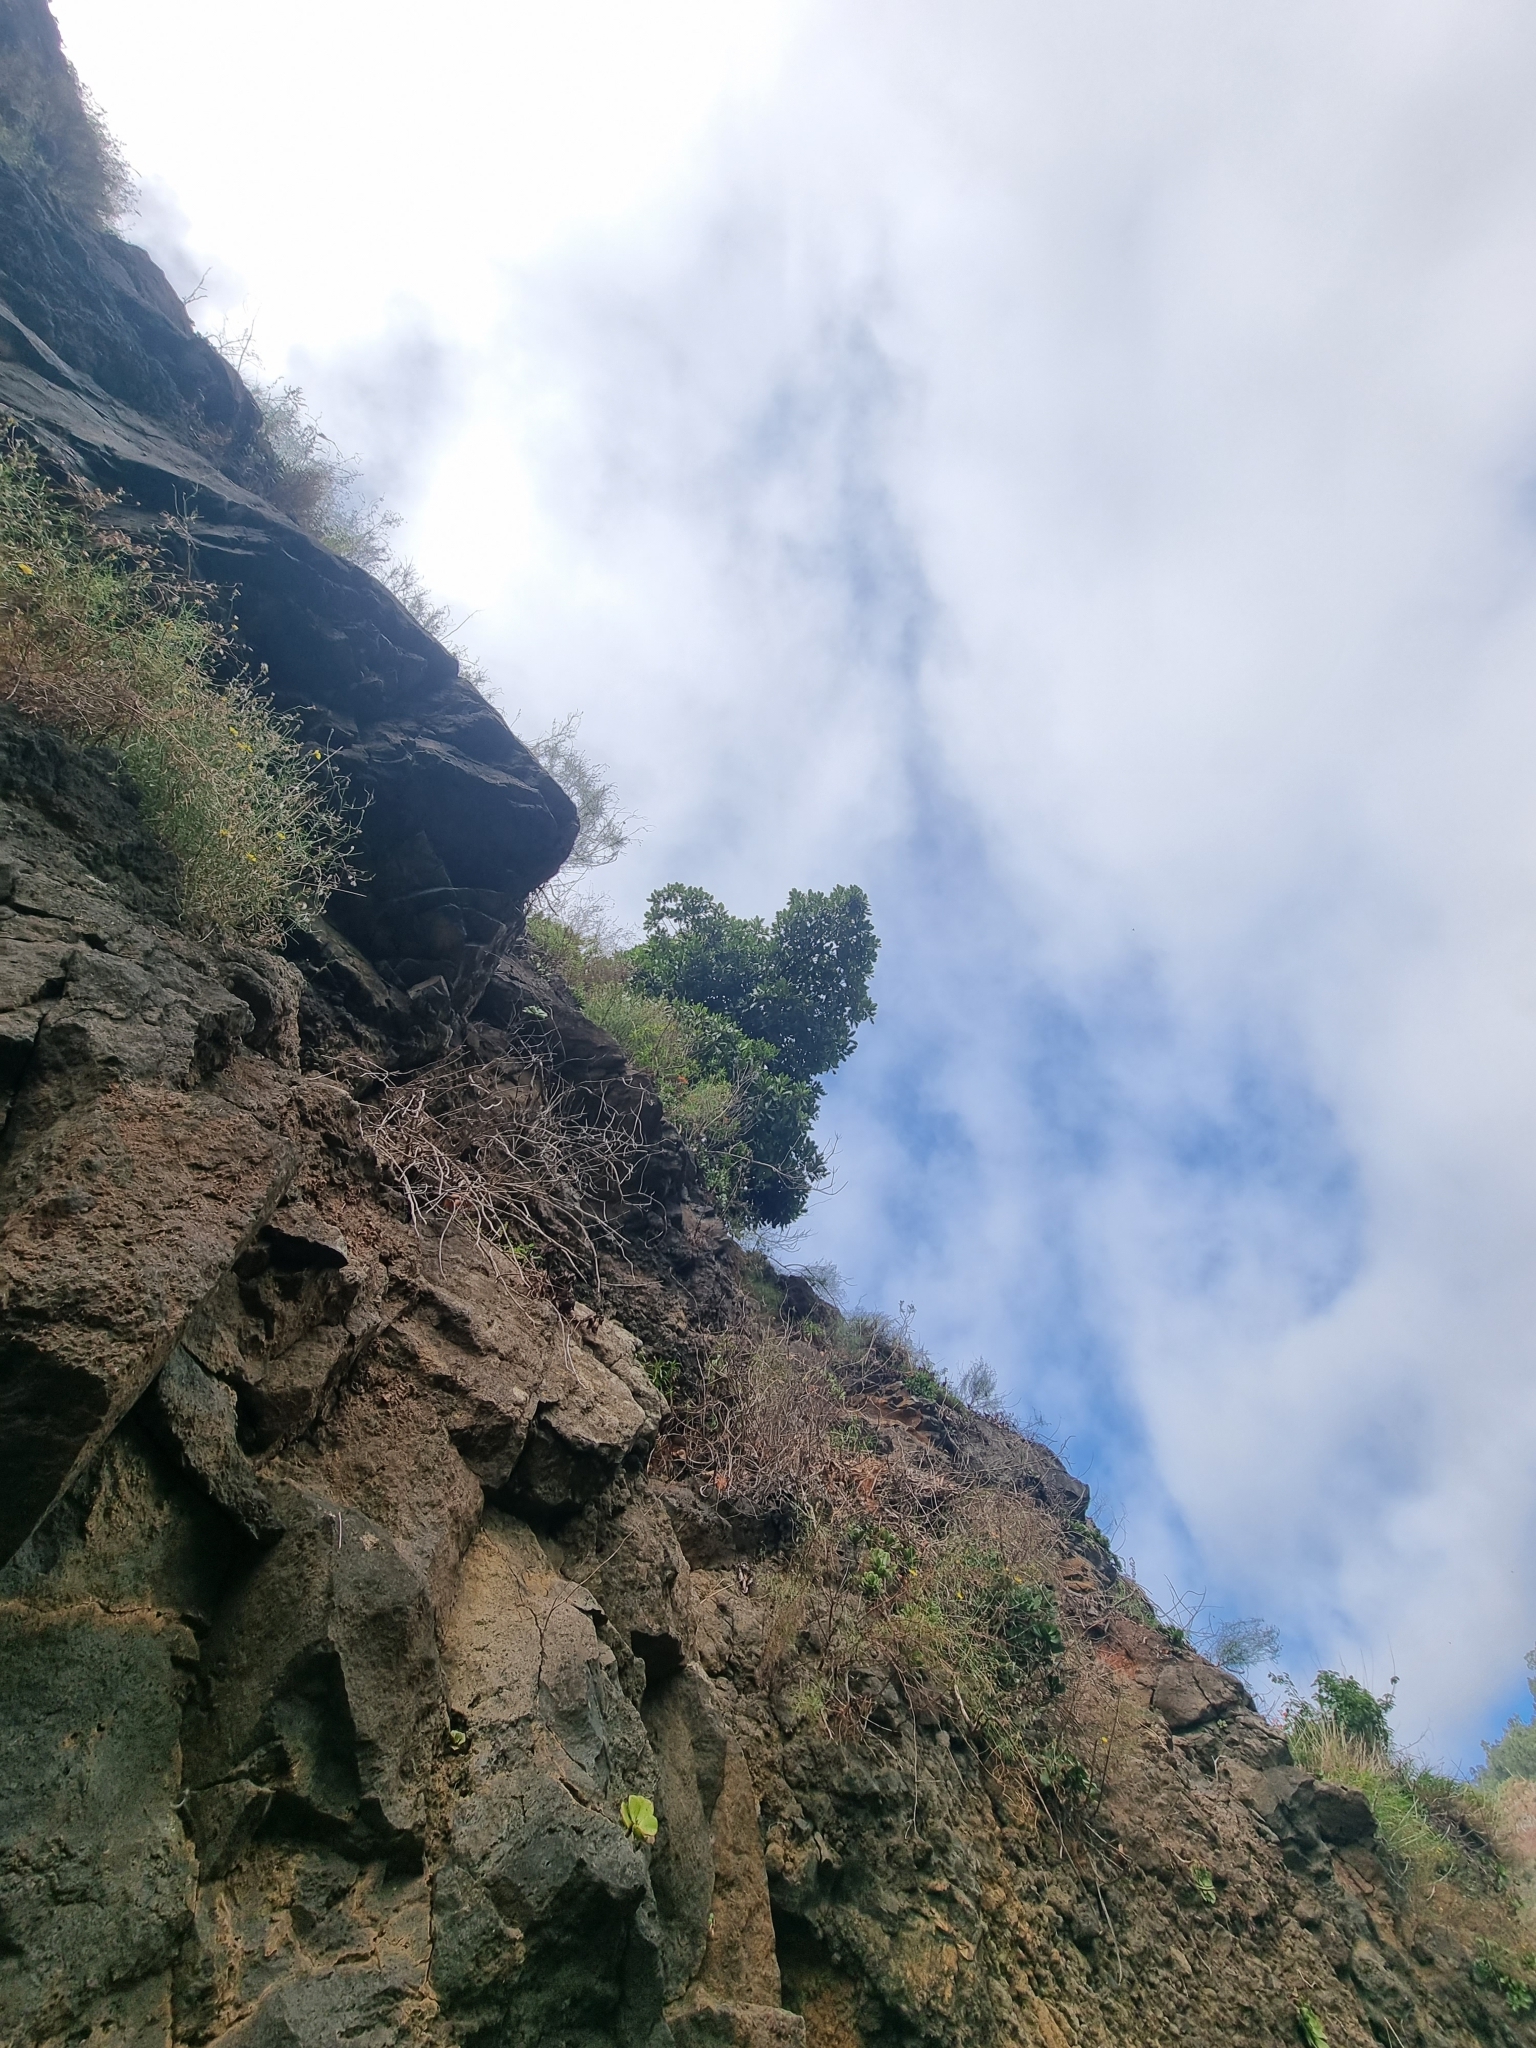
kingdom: Plantae
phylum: Tracheophyta
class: Magnoliopsida
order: Ericales
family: Sapotaceae
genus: Sideroxylon
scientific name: Sideroxylon mirmulans
